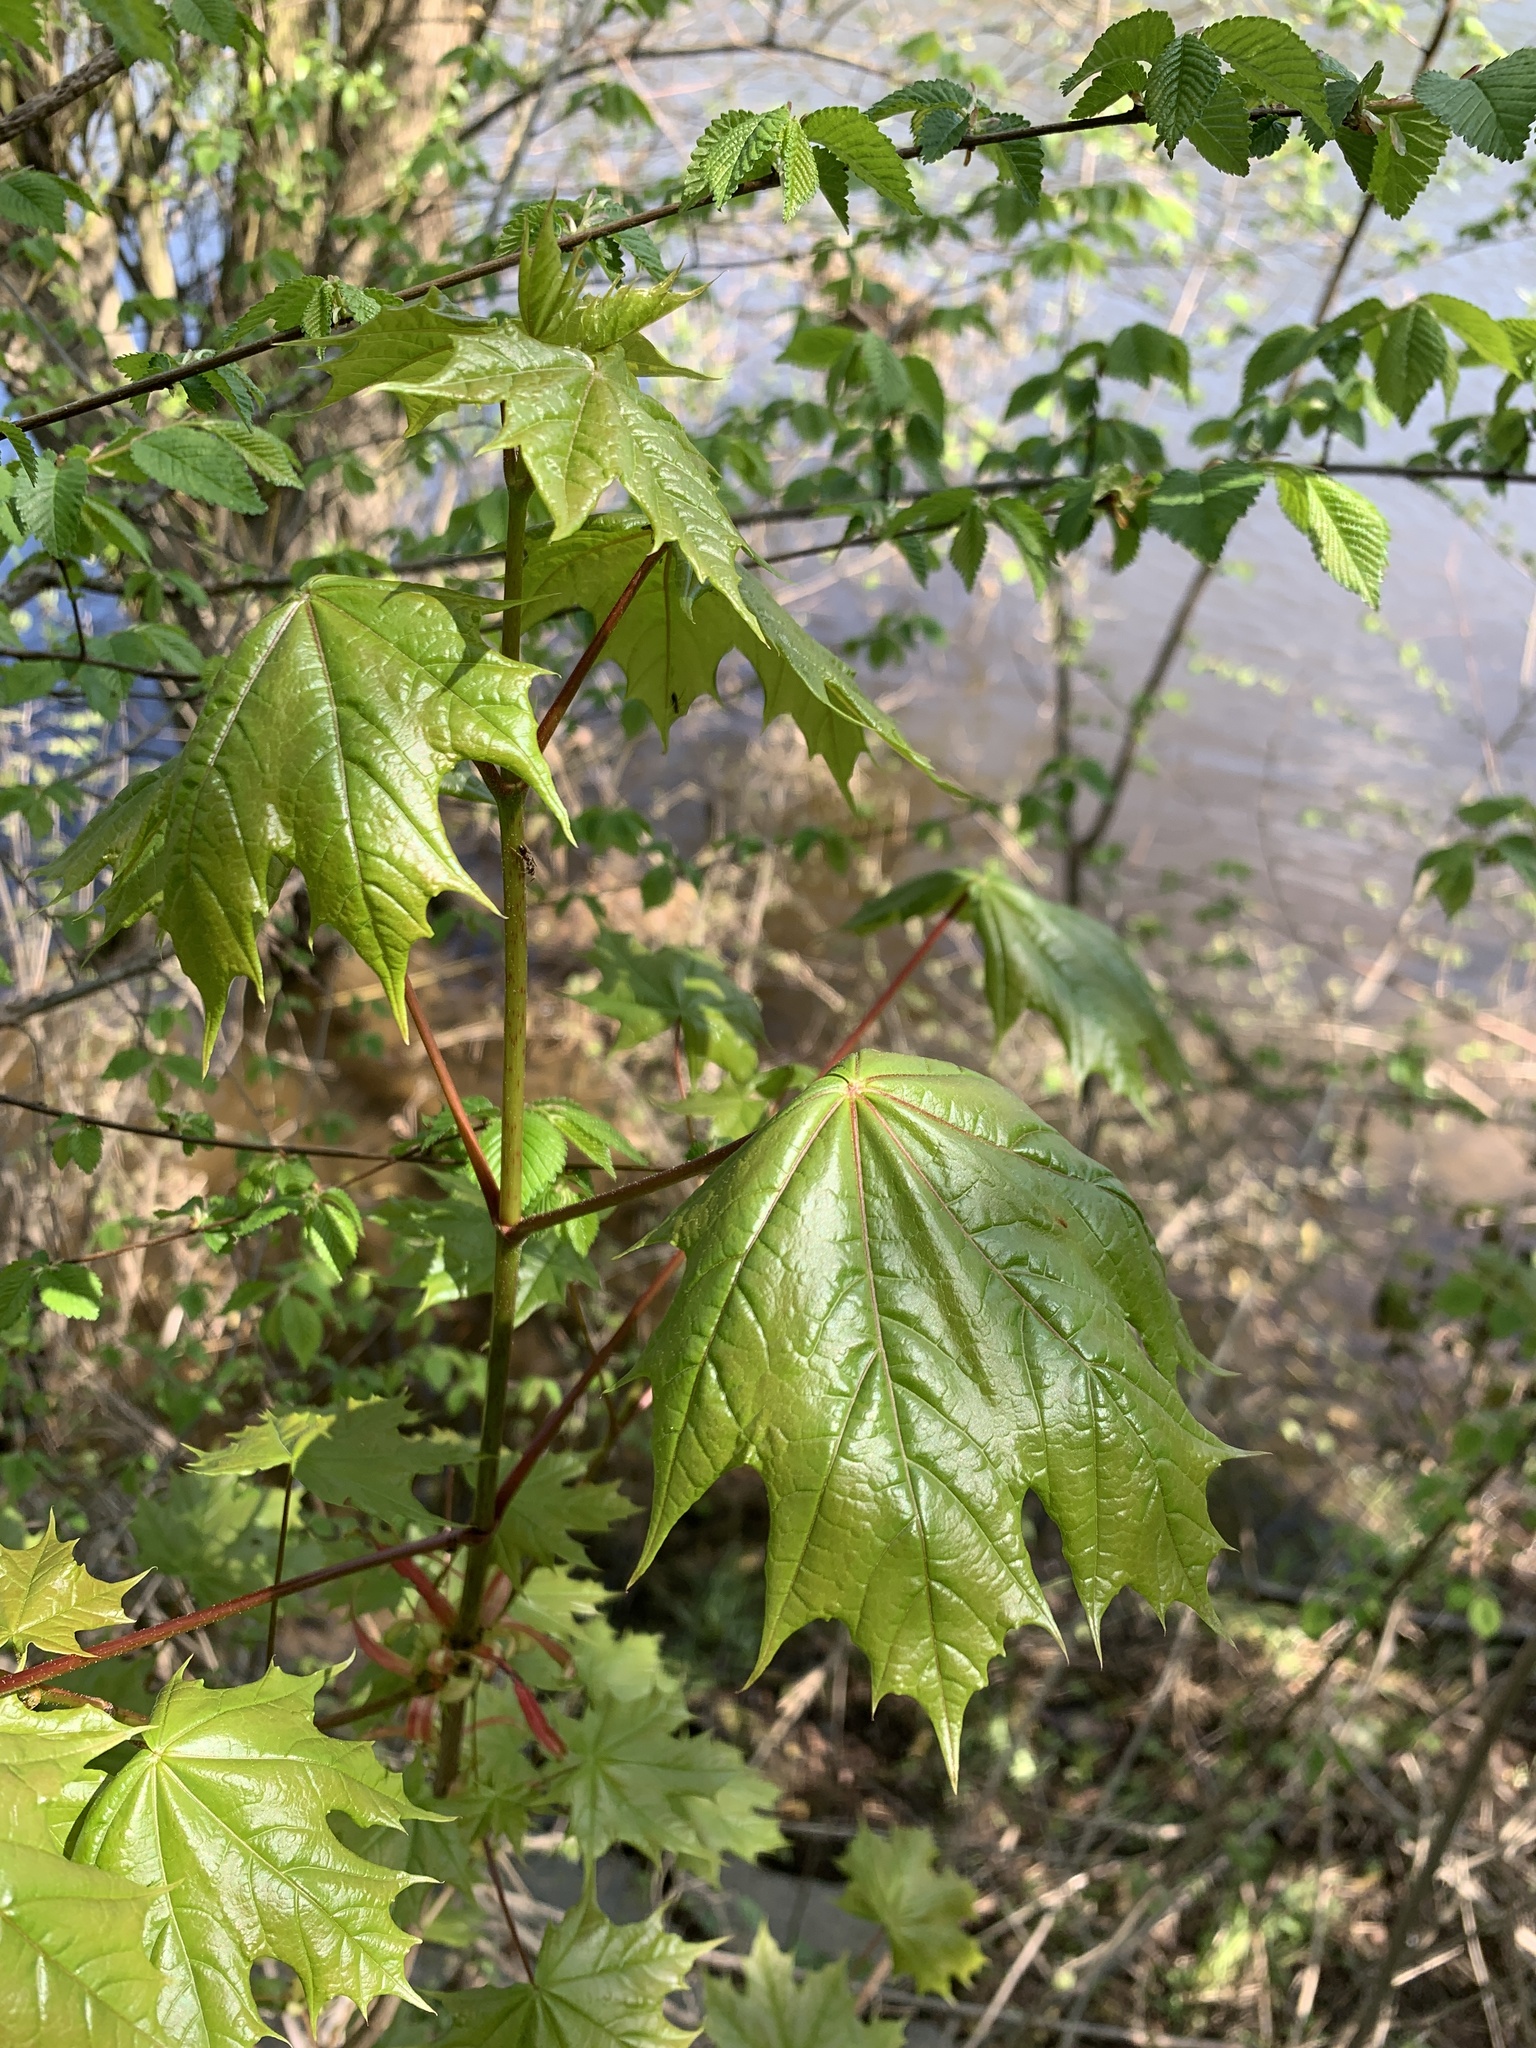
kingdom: Plantae
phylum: Tracheophyta
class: Magnoliopsida
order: Sapindales
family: Sapindaceae
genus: Acer
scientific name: Acer platanoides
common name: Norway maple
